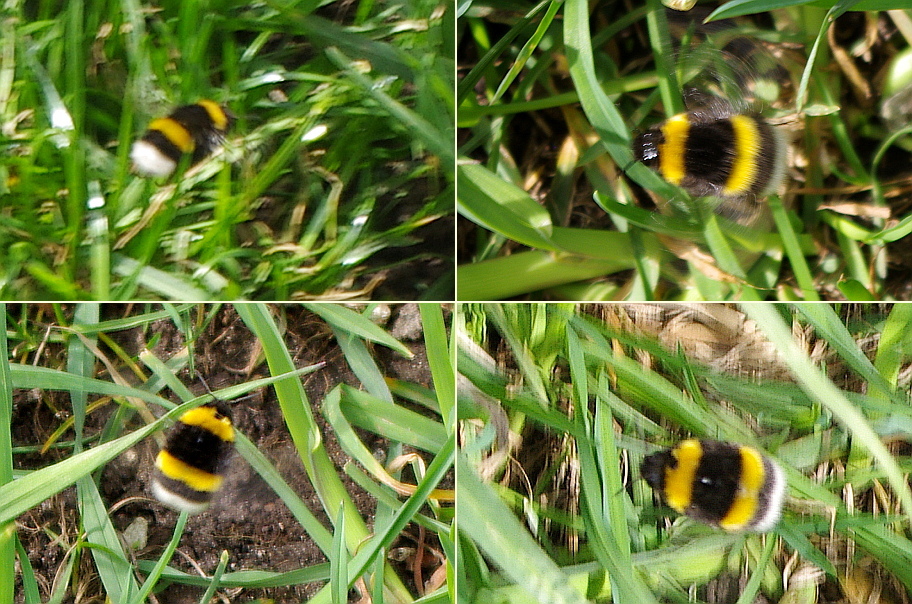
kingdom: Animalia
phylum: Arthropoda
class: Insecta
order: Hymenoptera
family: Apidae
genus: Bombus
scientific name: Bombus
